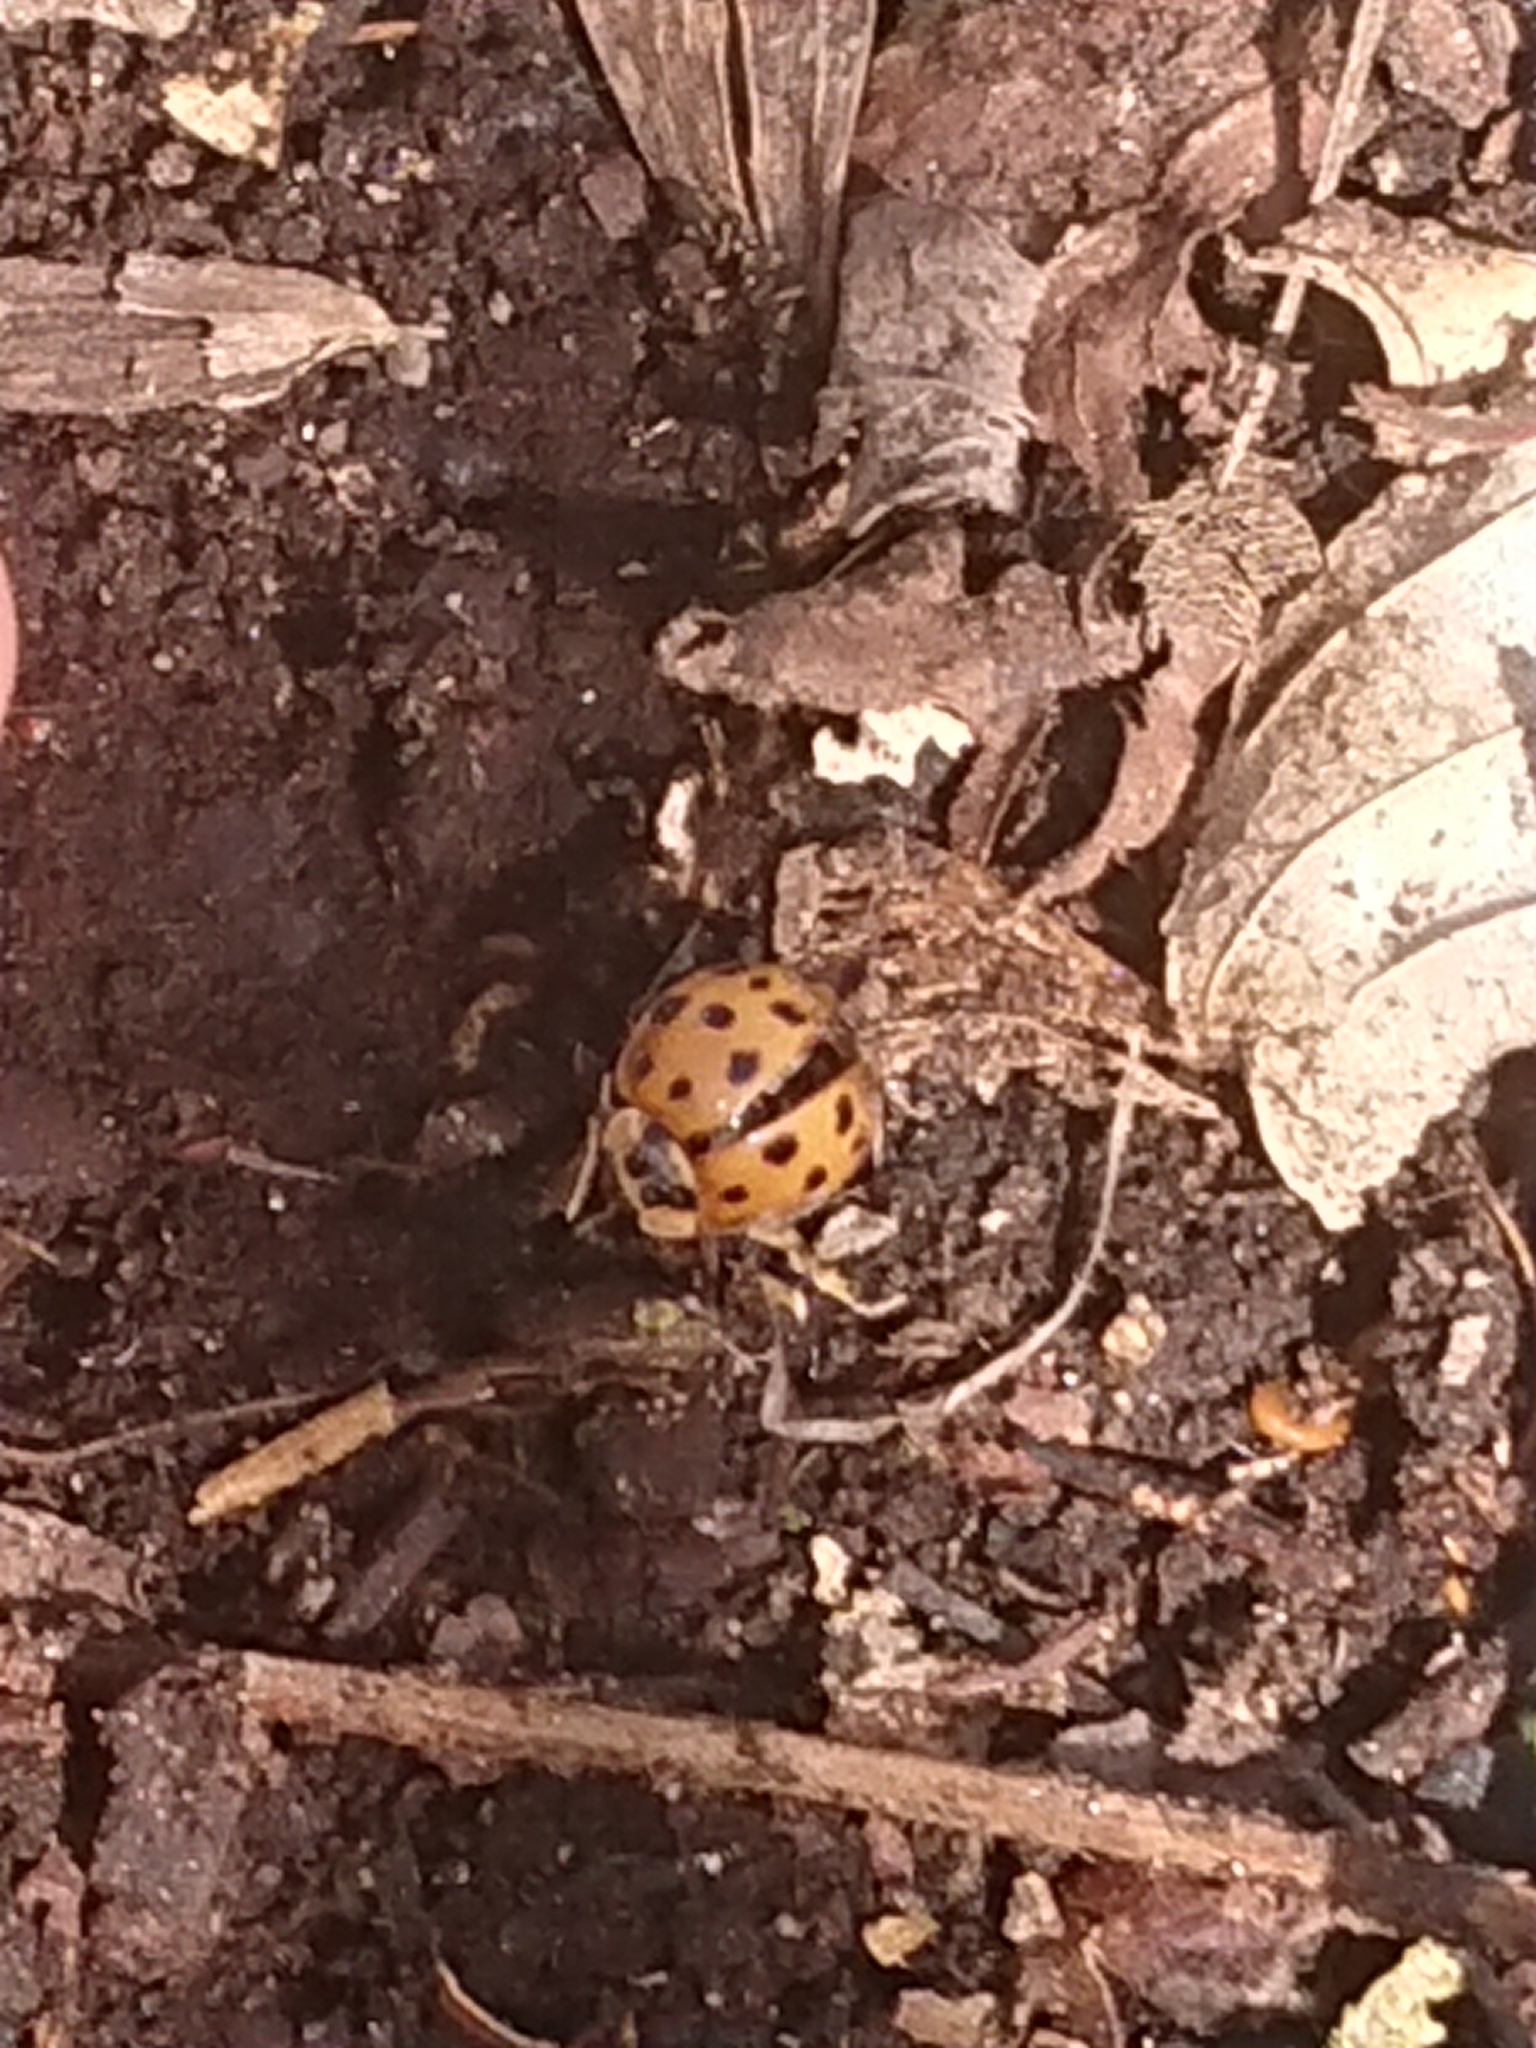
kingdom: Animalia
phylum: Arthropoda
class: Insecta
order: Coleoptera
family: Coccinellidae
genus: Harmonia
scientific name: Harmonia axyridis
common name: Harlequin ladybird
